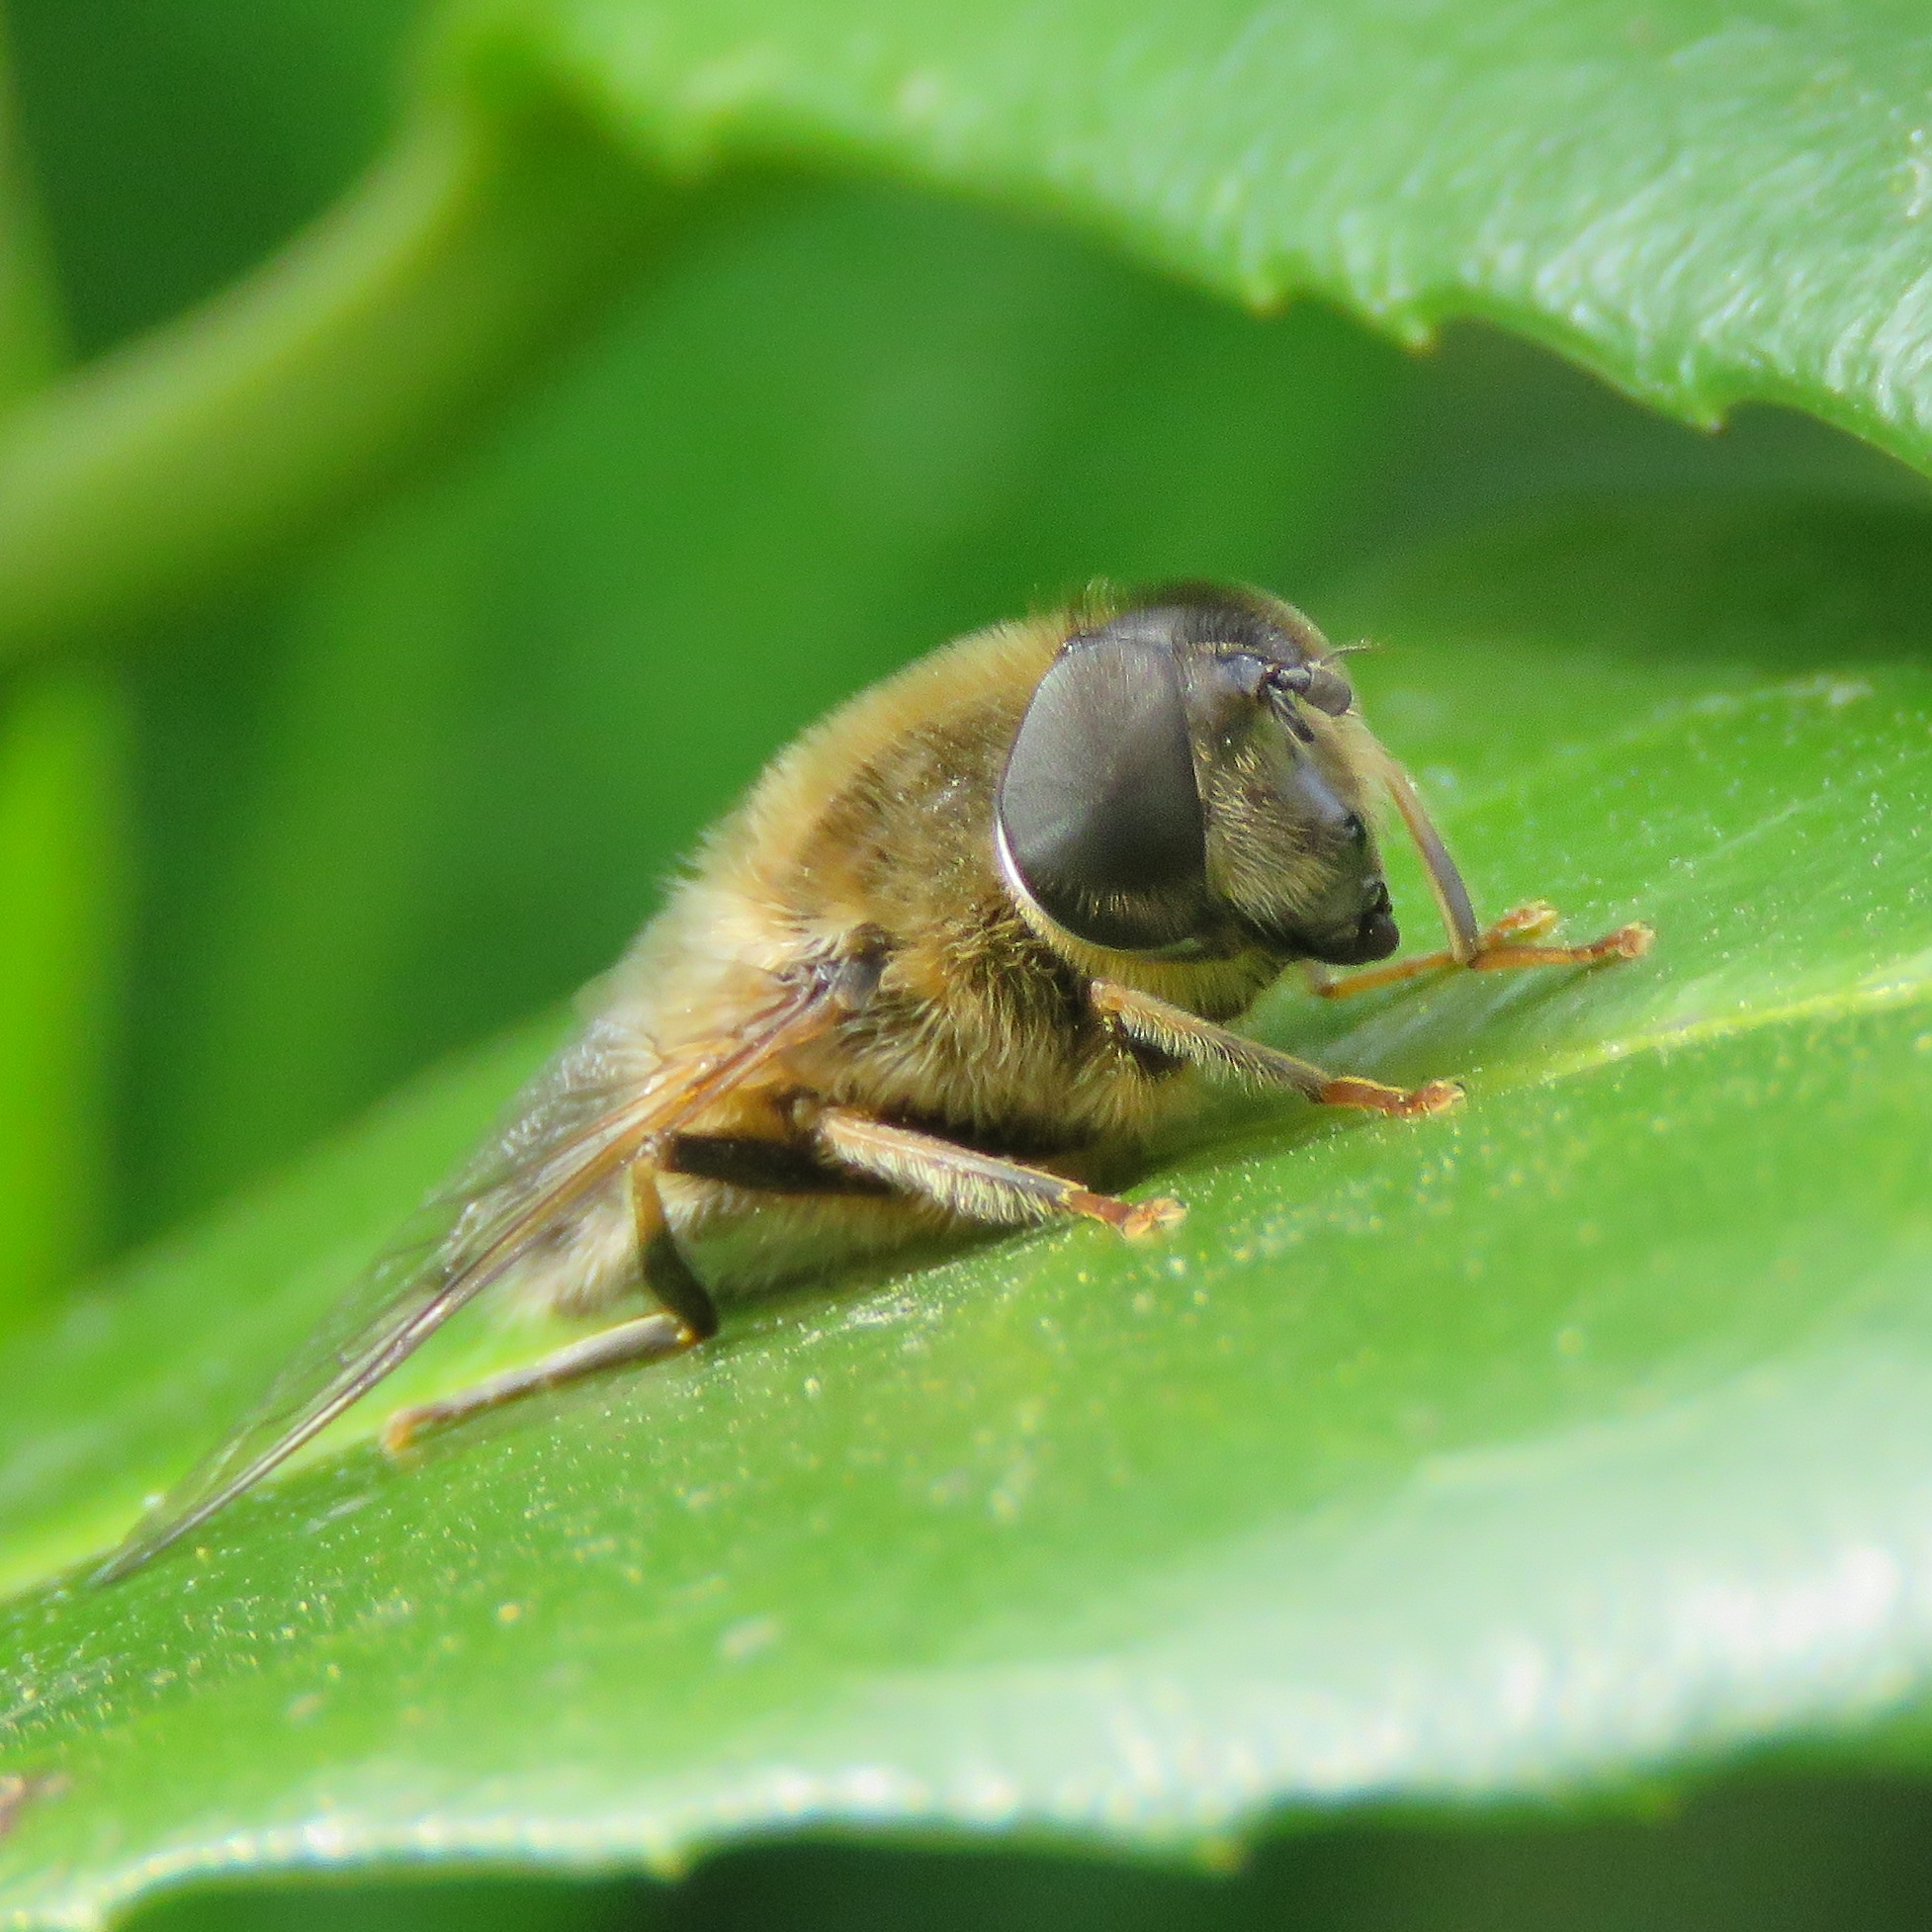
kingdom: Animalia
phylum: Arthropoda
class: Insecta
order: Diptera
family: Syrphidae
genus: Eristalis
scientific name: Eristalis pertinax
